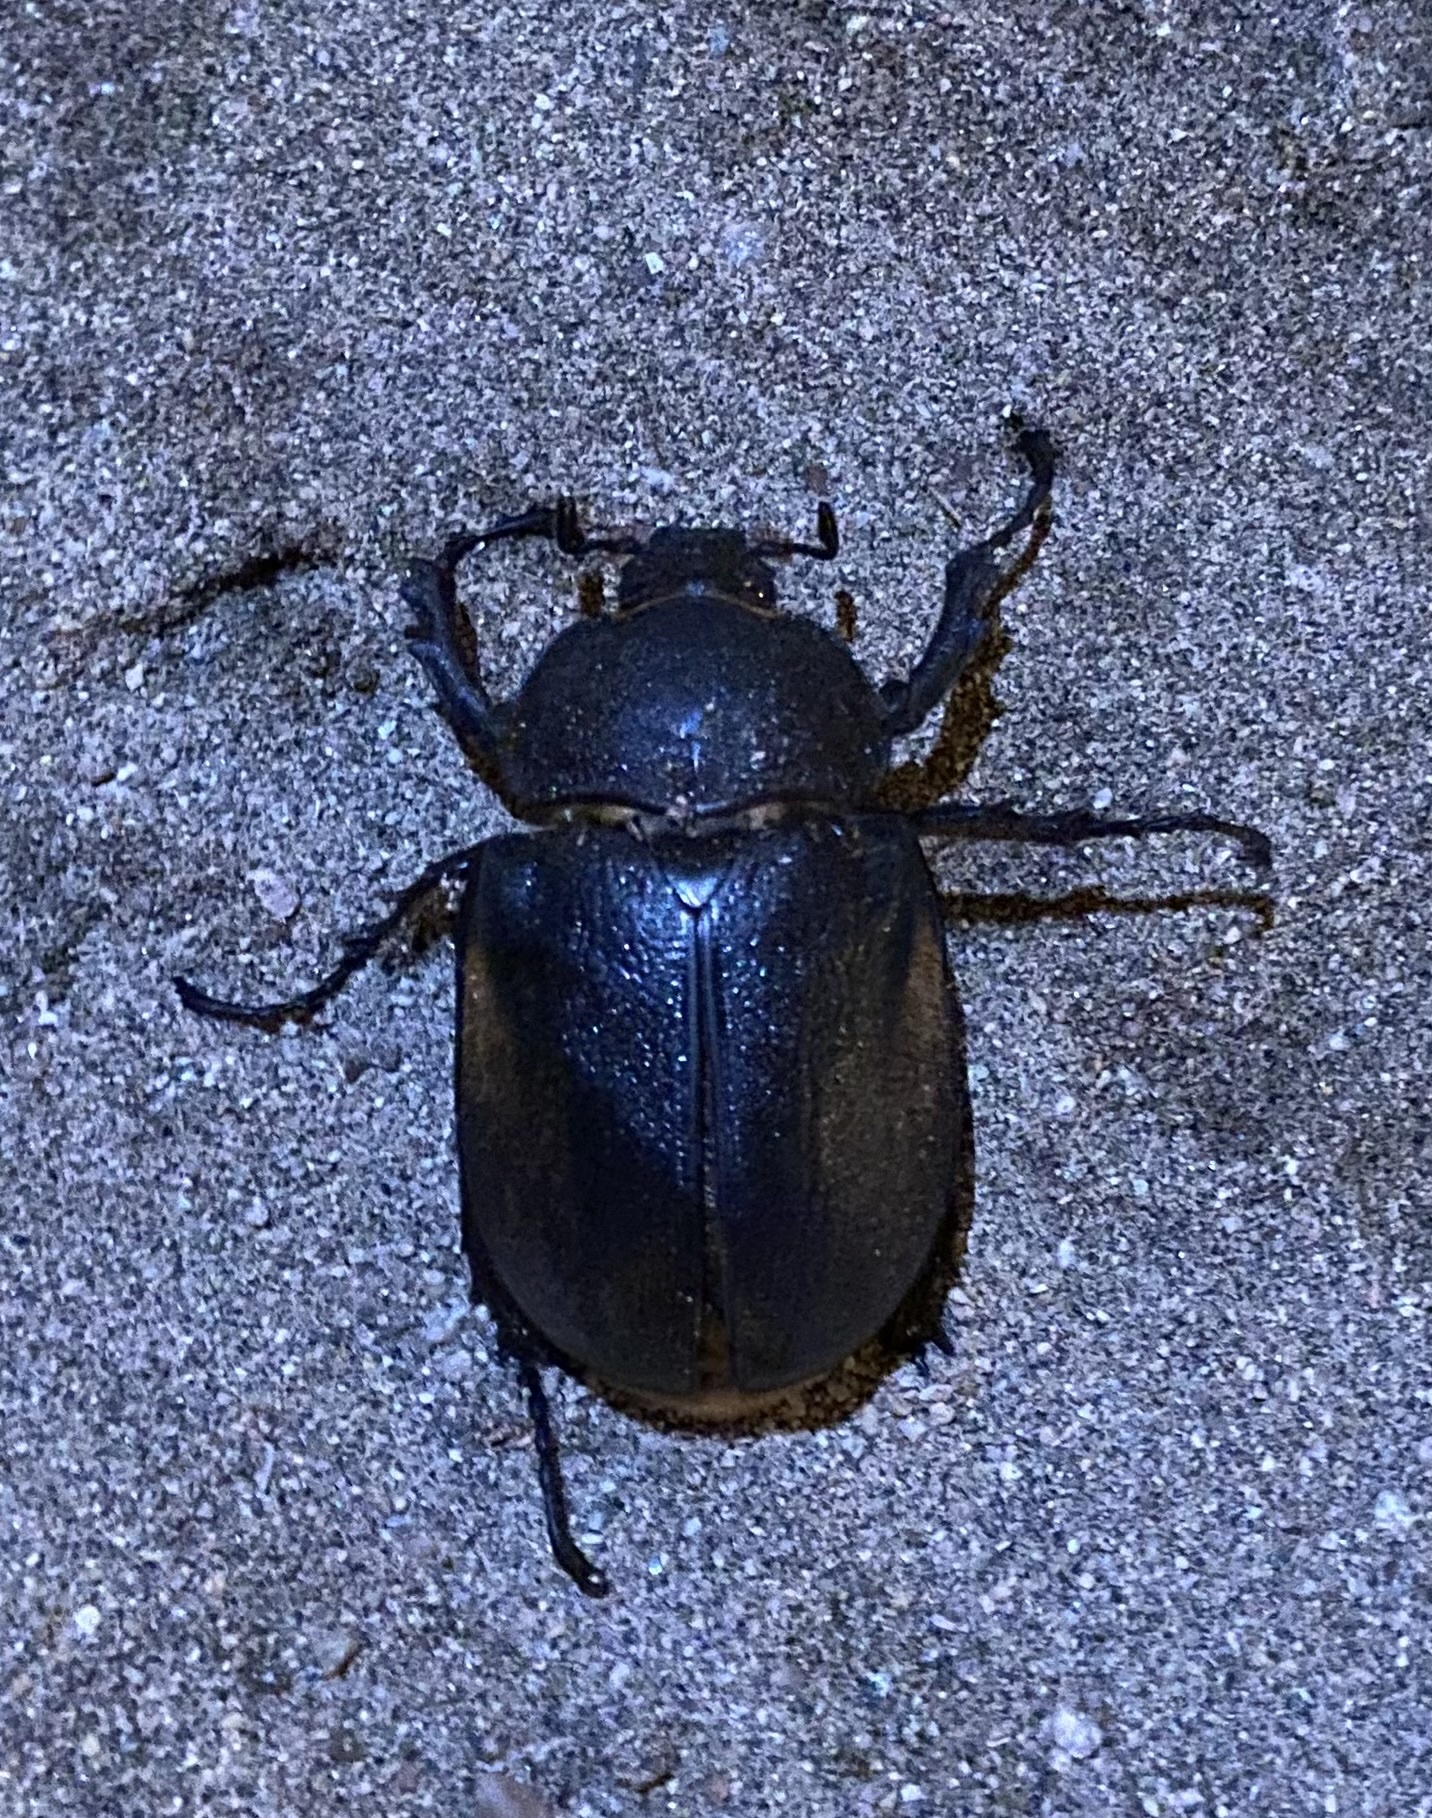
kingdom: Animalia
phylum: Arthropoda
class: Insecta
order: Coleoptera
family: Scarabaeidae
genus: Megasoma
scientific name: Megasoma occidentale
